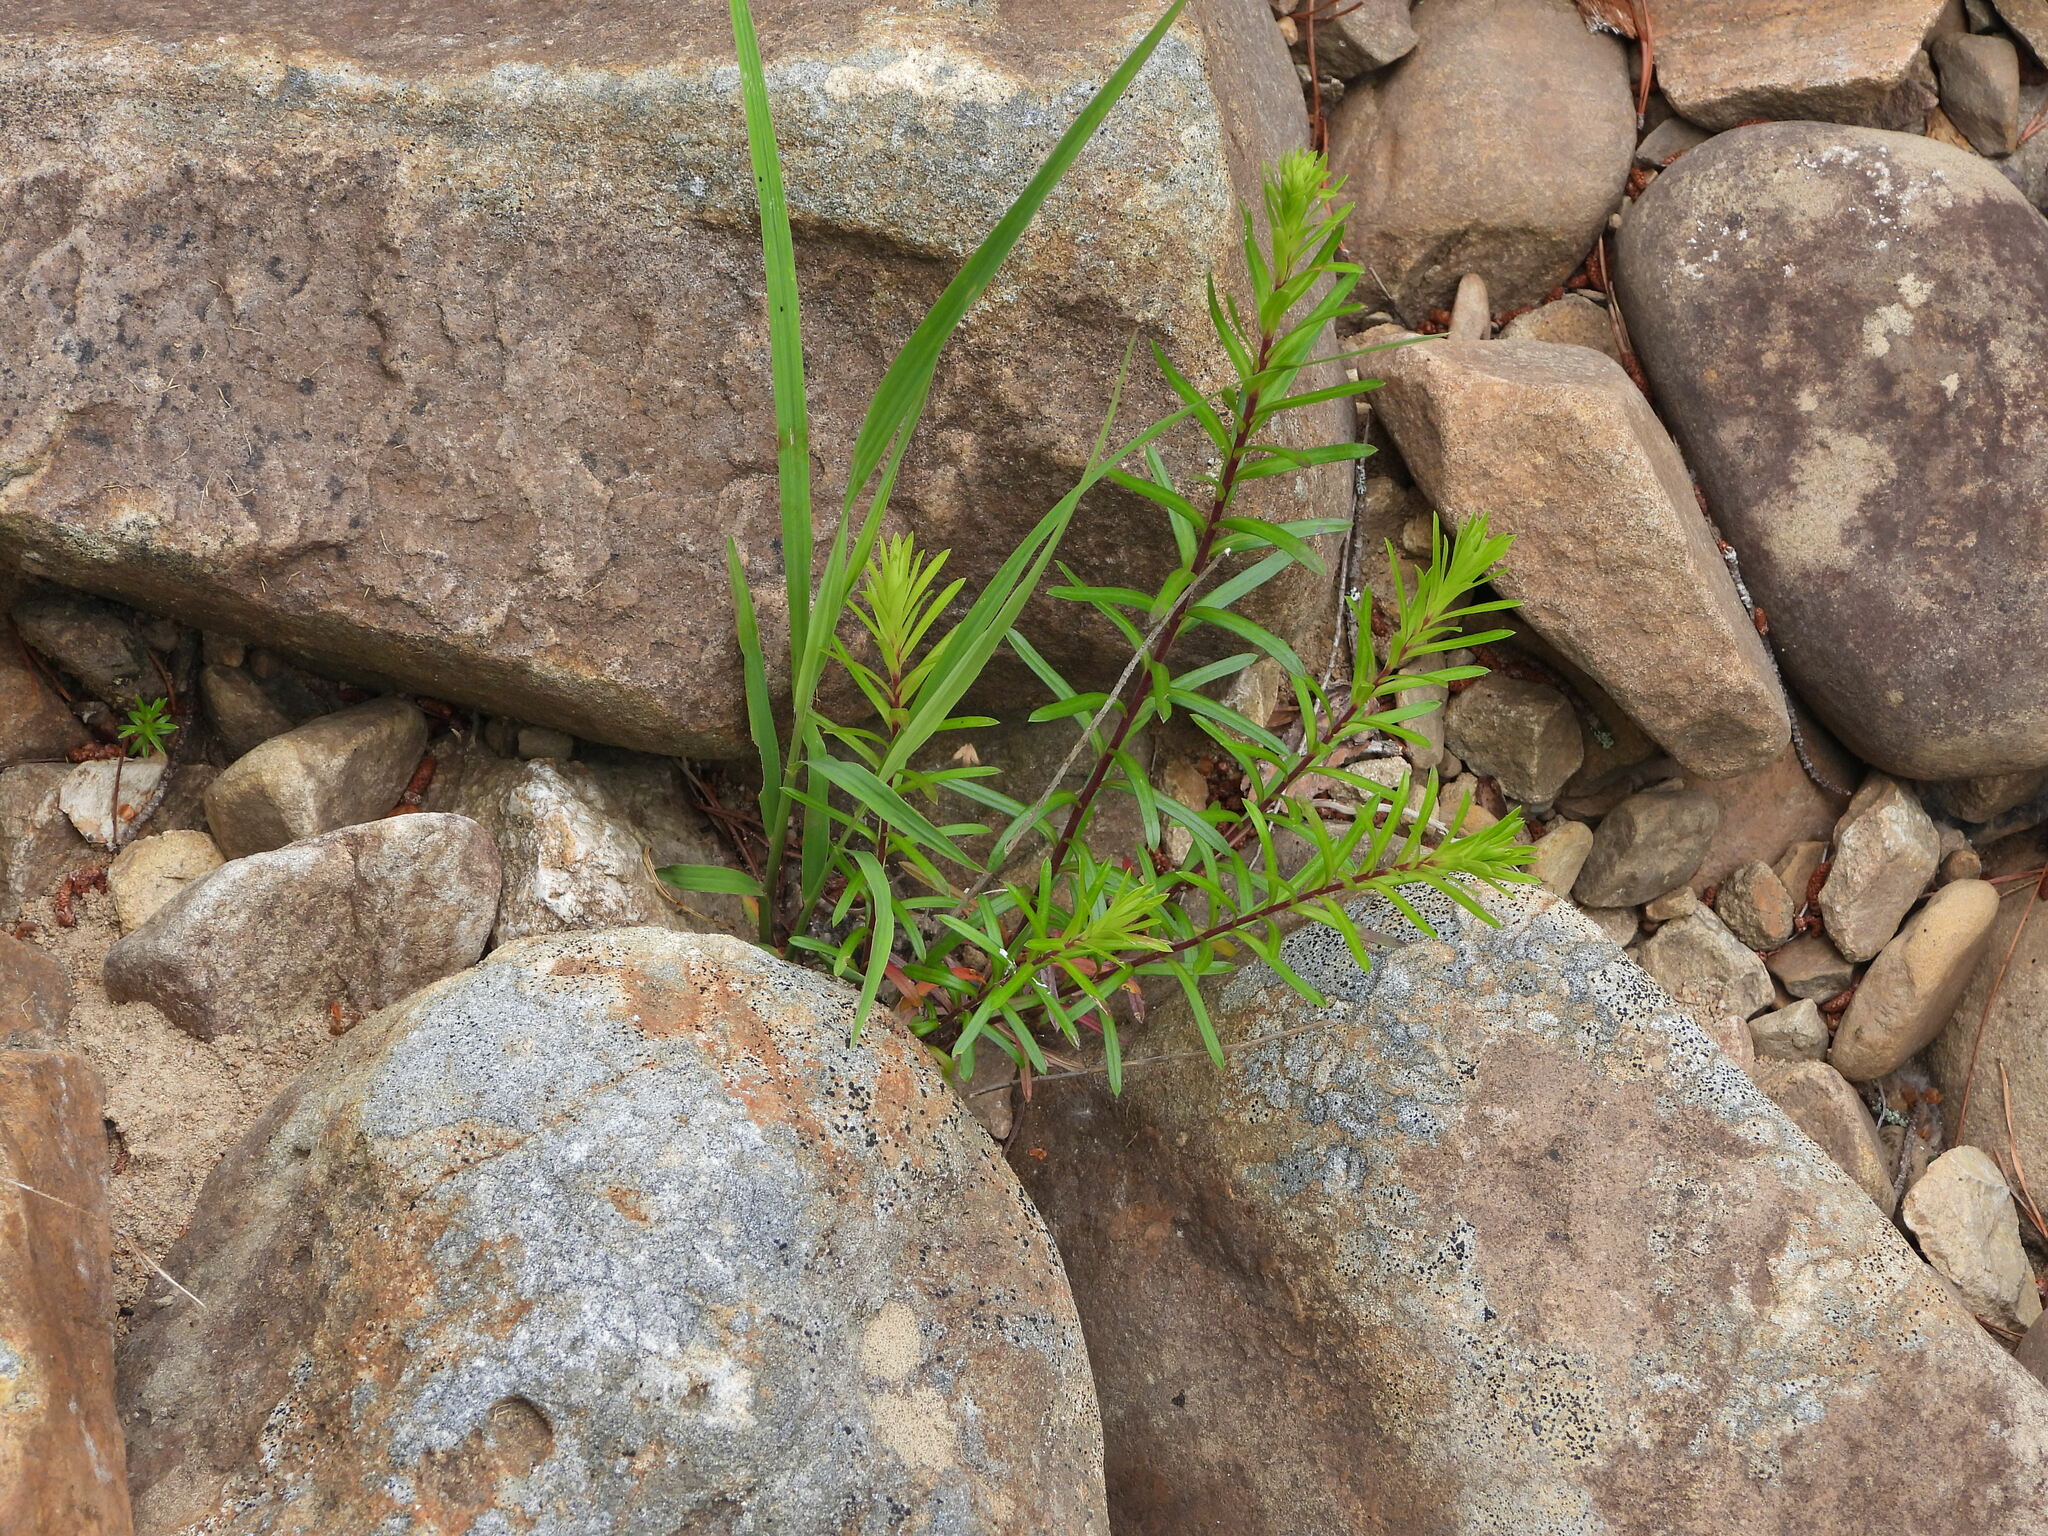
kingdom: Plantae
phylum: Tracheophyta
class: Magnoliopsida
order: Asterales
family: Asteraceae
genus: Ionactis
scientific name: Ionactis linariifolia
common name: Flax-leaf aster
